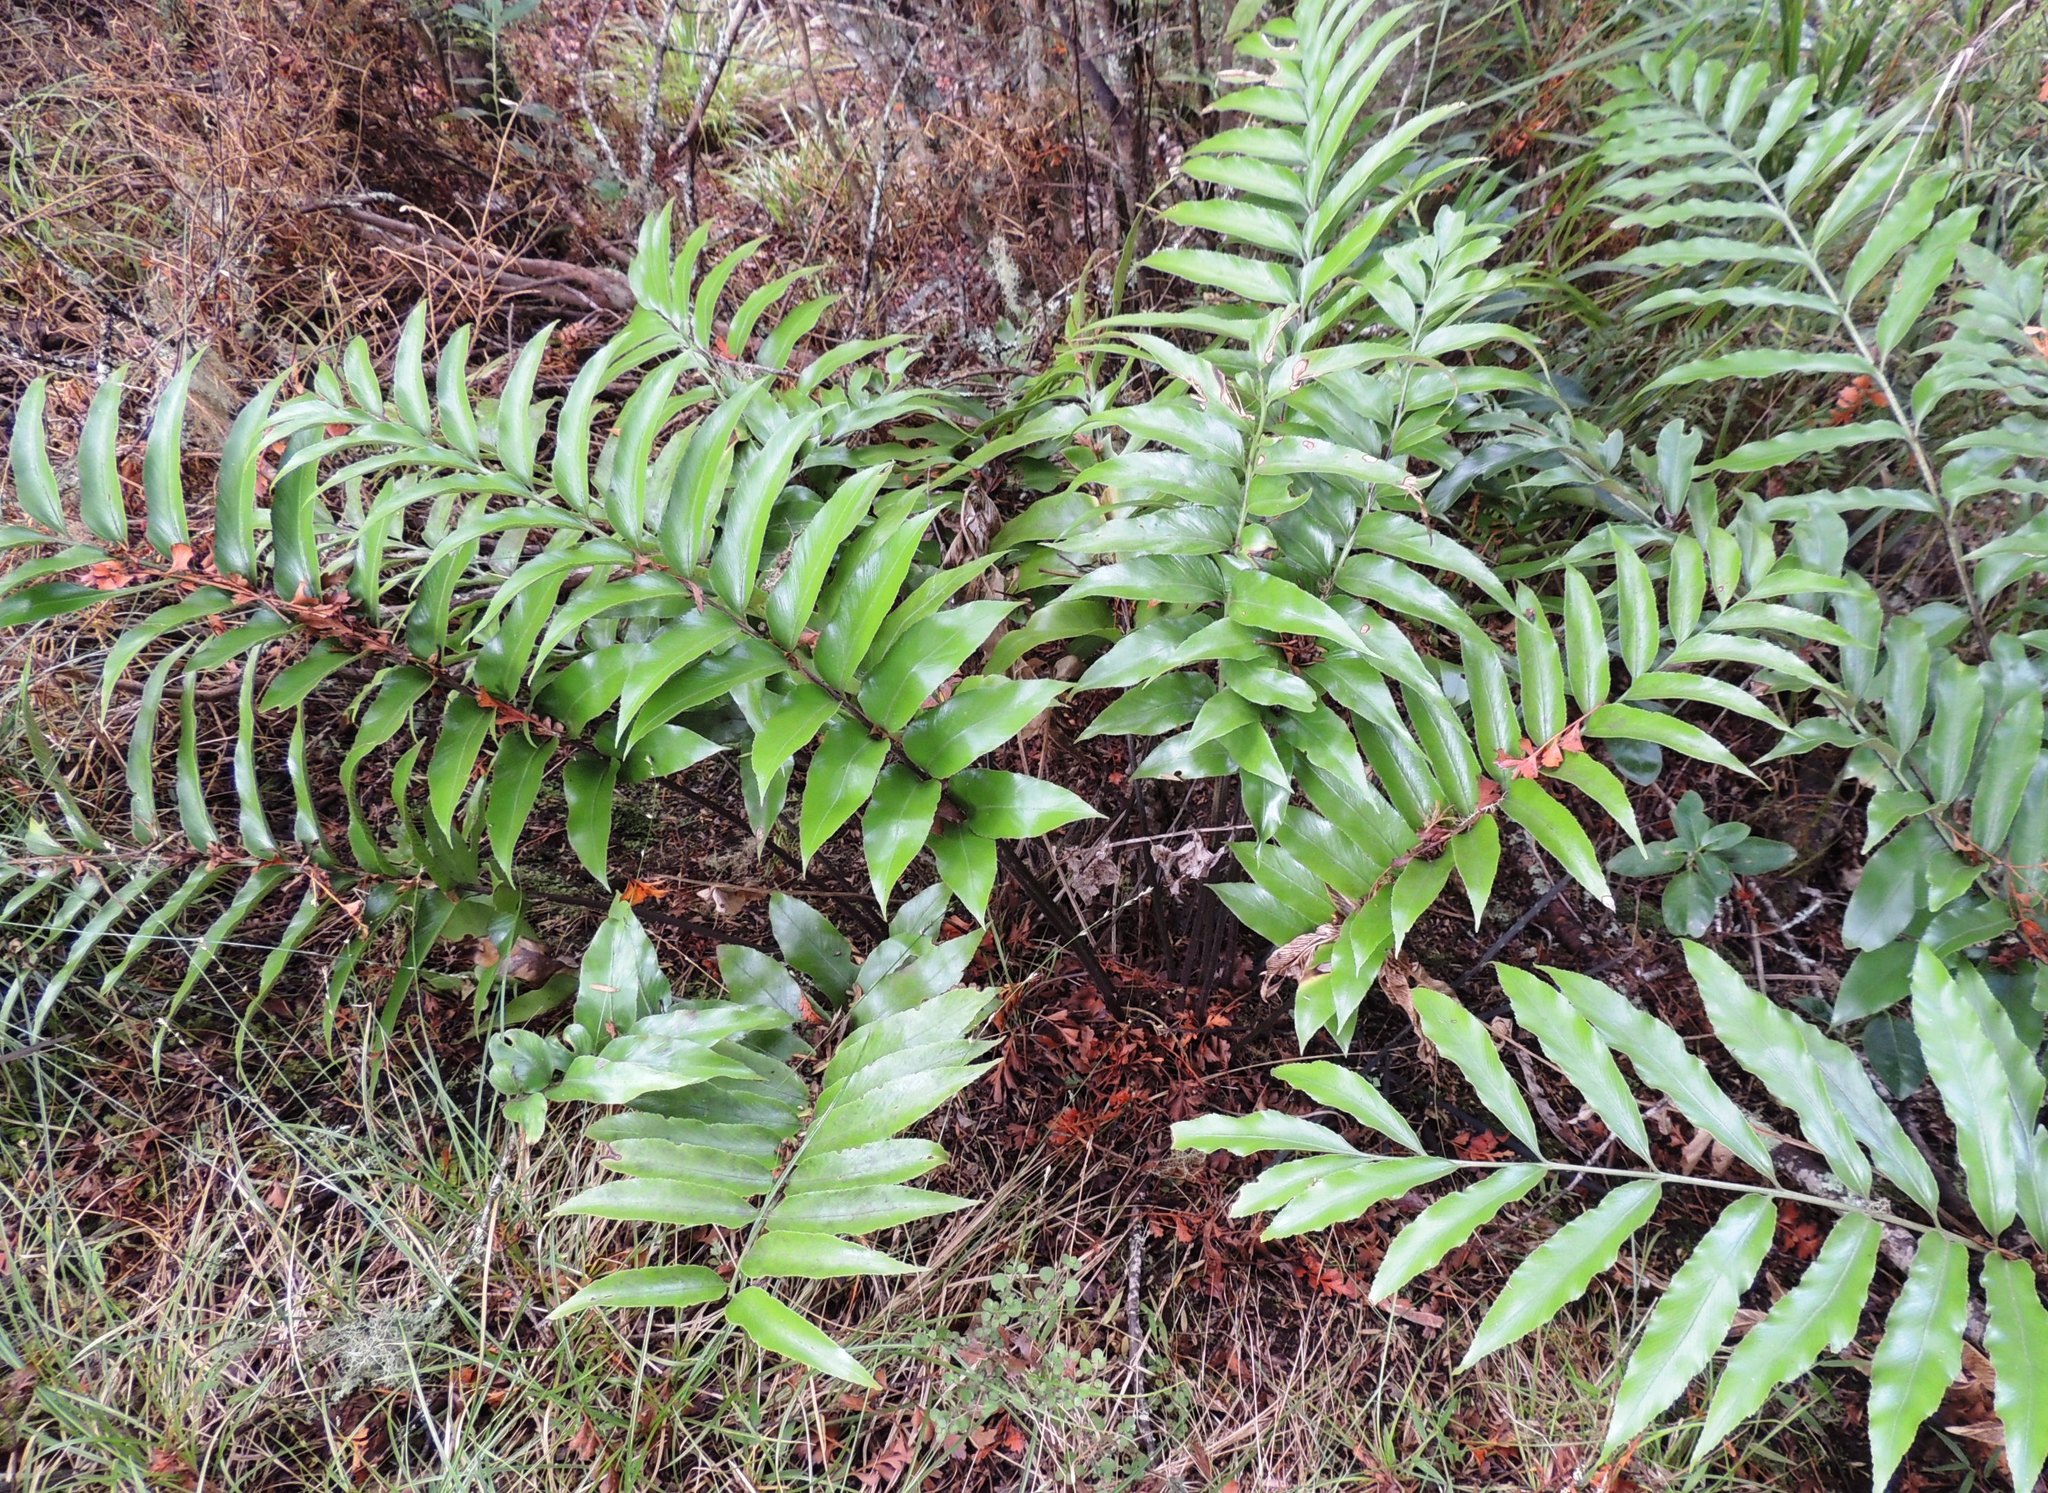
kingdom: Plantae
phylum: Tracheophyta
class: Polypodiopsida
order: Polypodiales
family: Aspleniaceae
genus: Asplenium
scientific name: Asplenium oblongifolium
